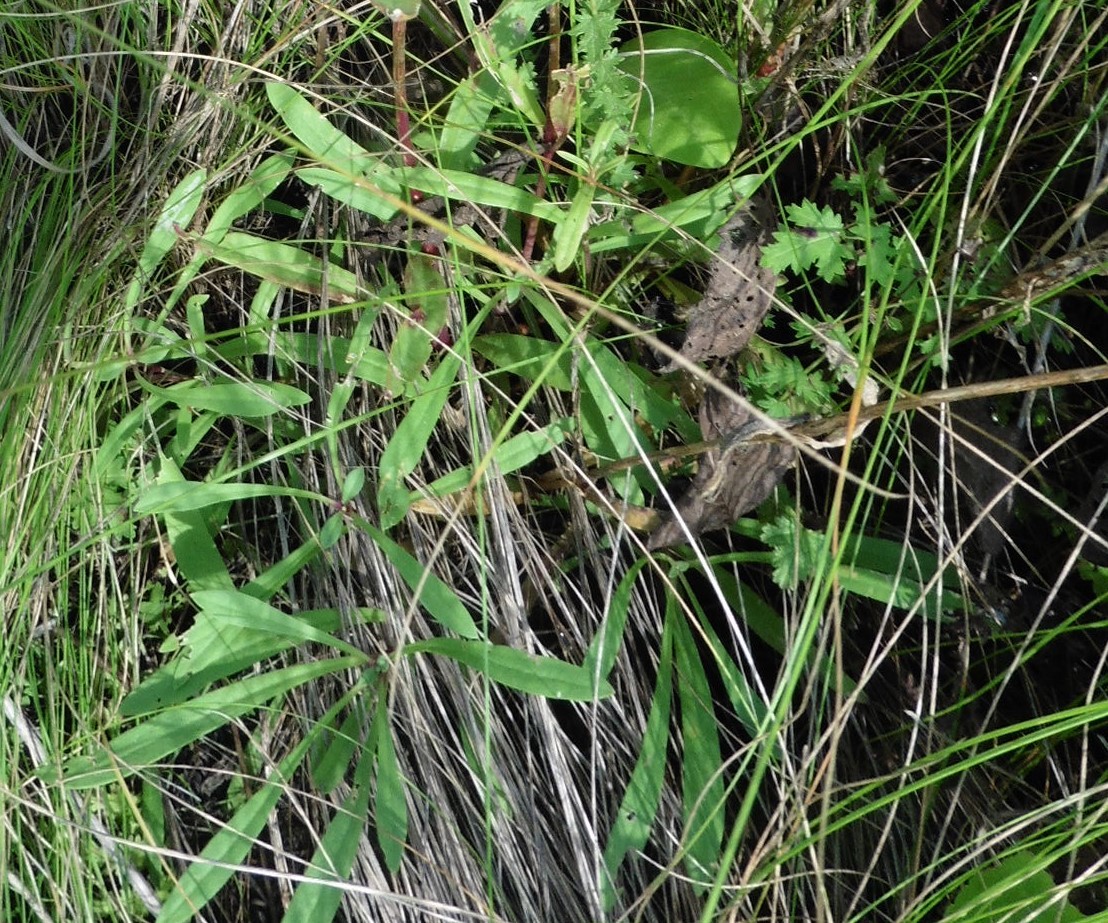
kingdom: Plantae
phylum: Tracheophyta
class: Magnoliopsida
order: Caryophyllales
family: Caryophyllaceae
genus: Gypsophila
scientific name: Gypsophila altissima
